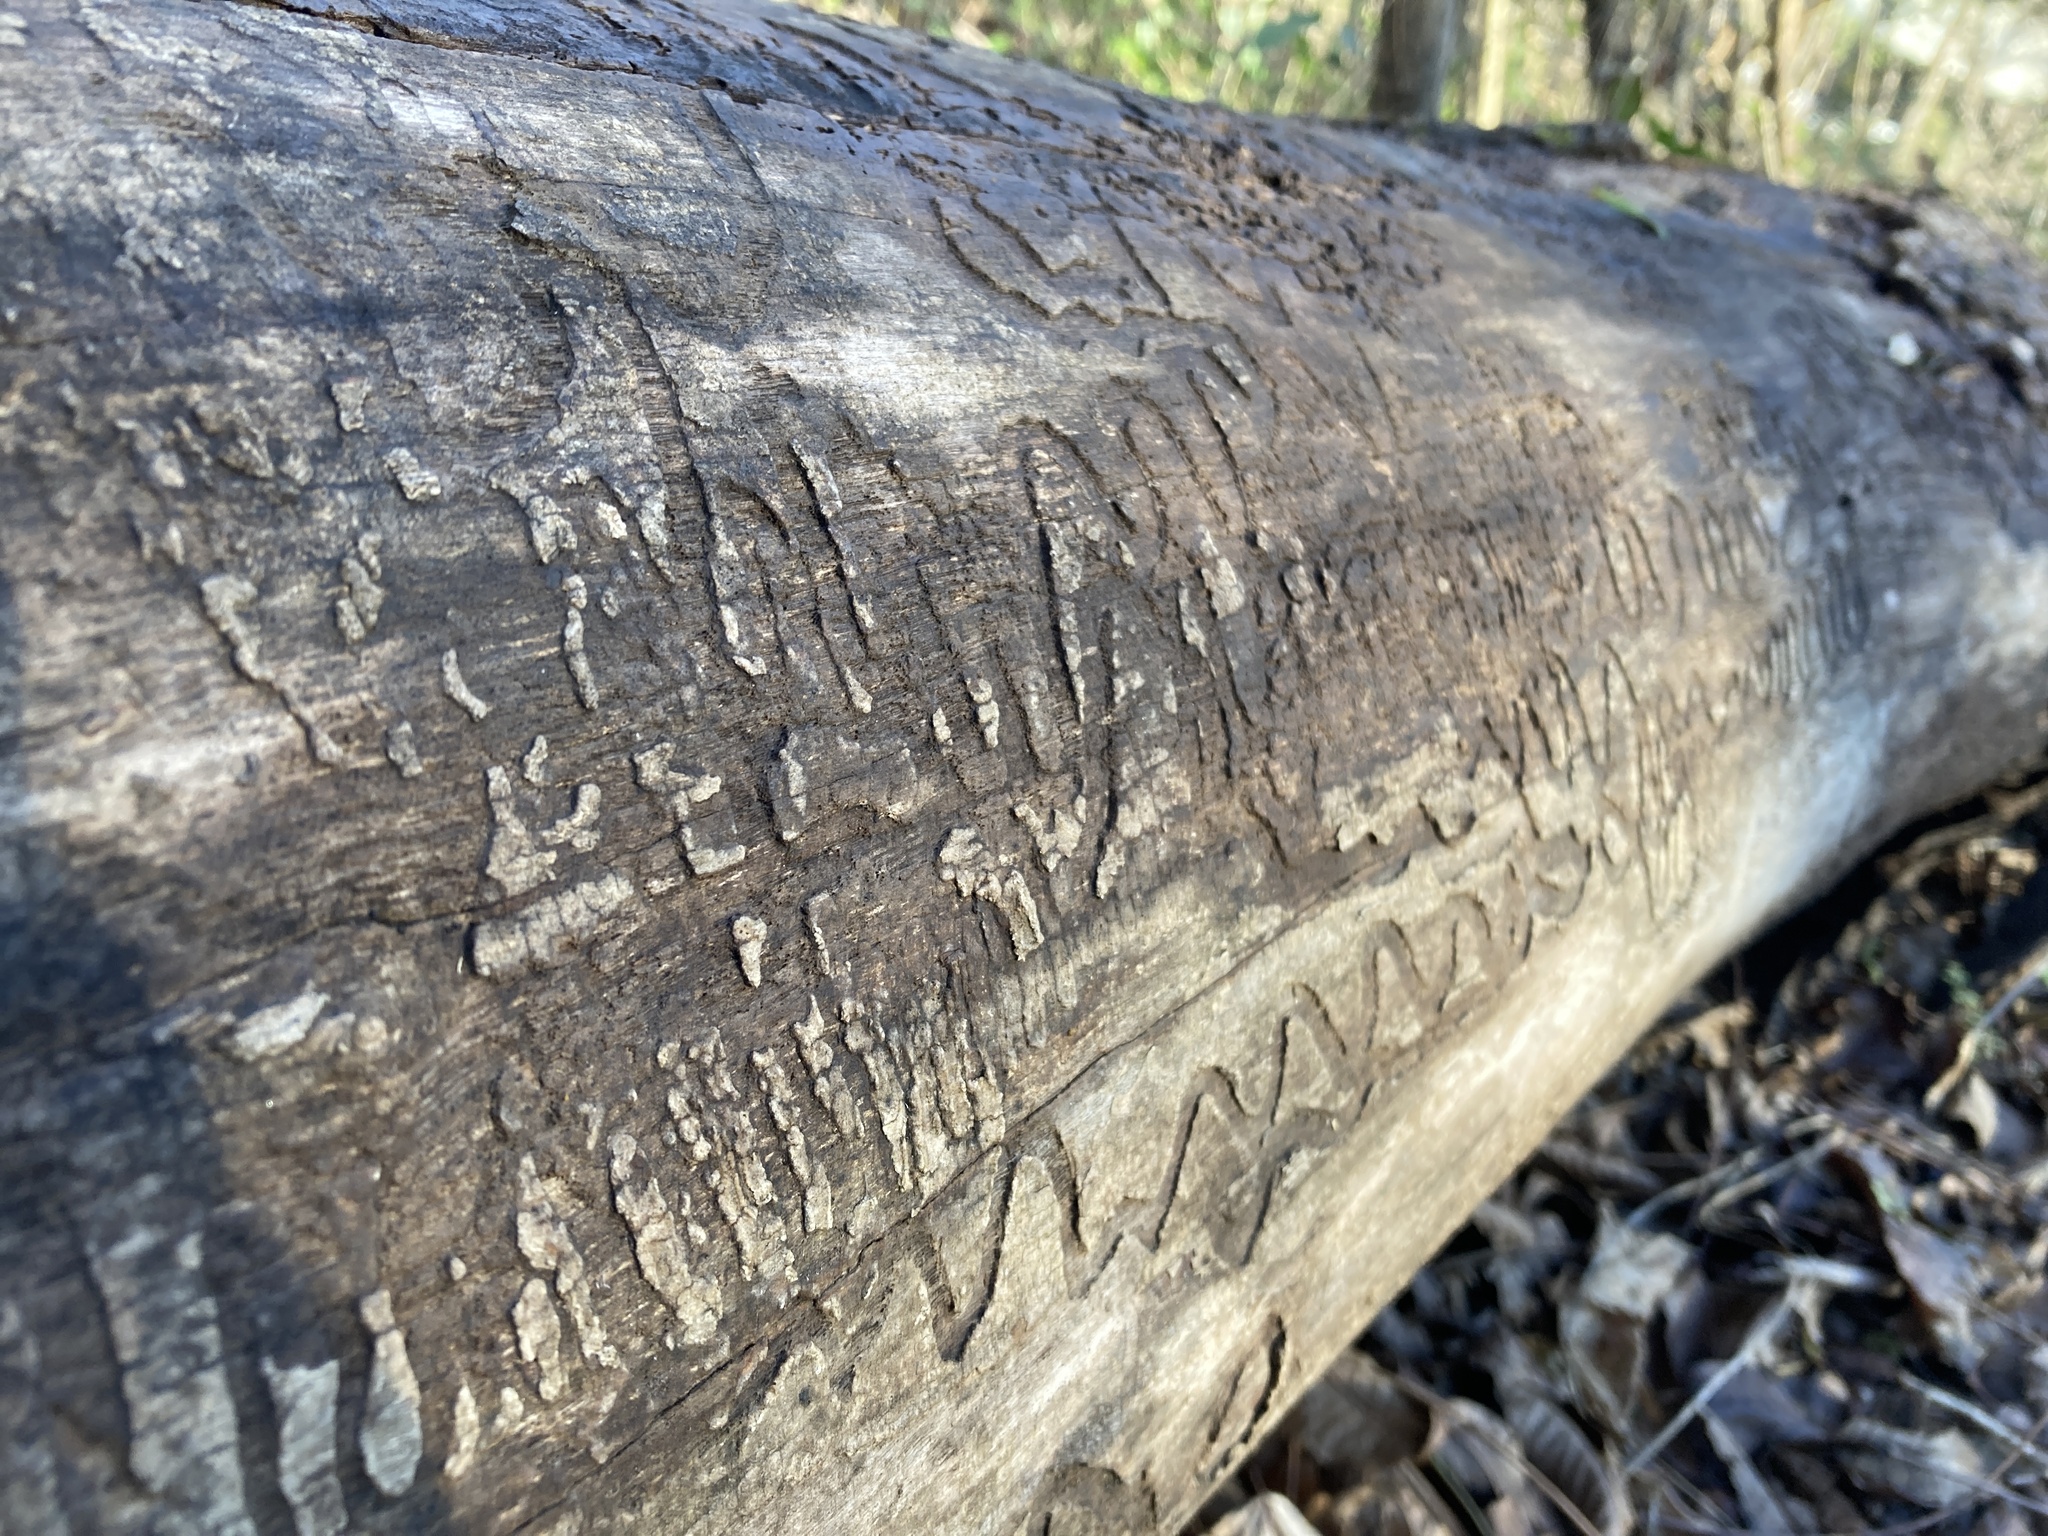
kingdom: Animalia
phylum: Arthropoda
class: Insecta
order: Coleoptera
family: Buprestidae
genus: Agrilus
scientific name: Agrilus planipennis
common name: Emerald ash borer
